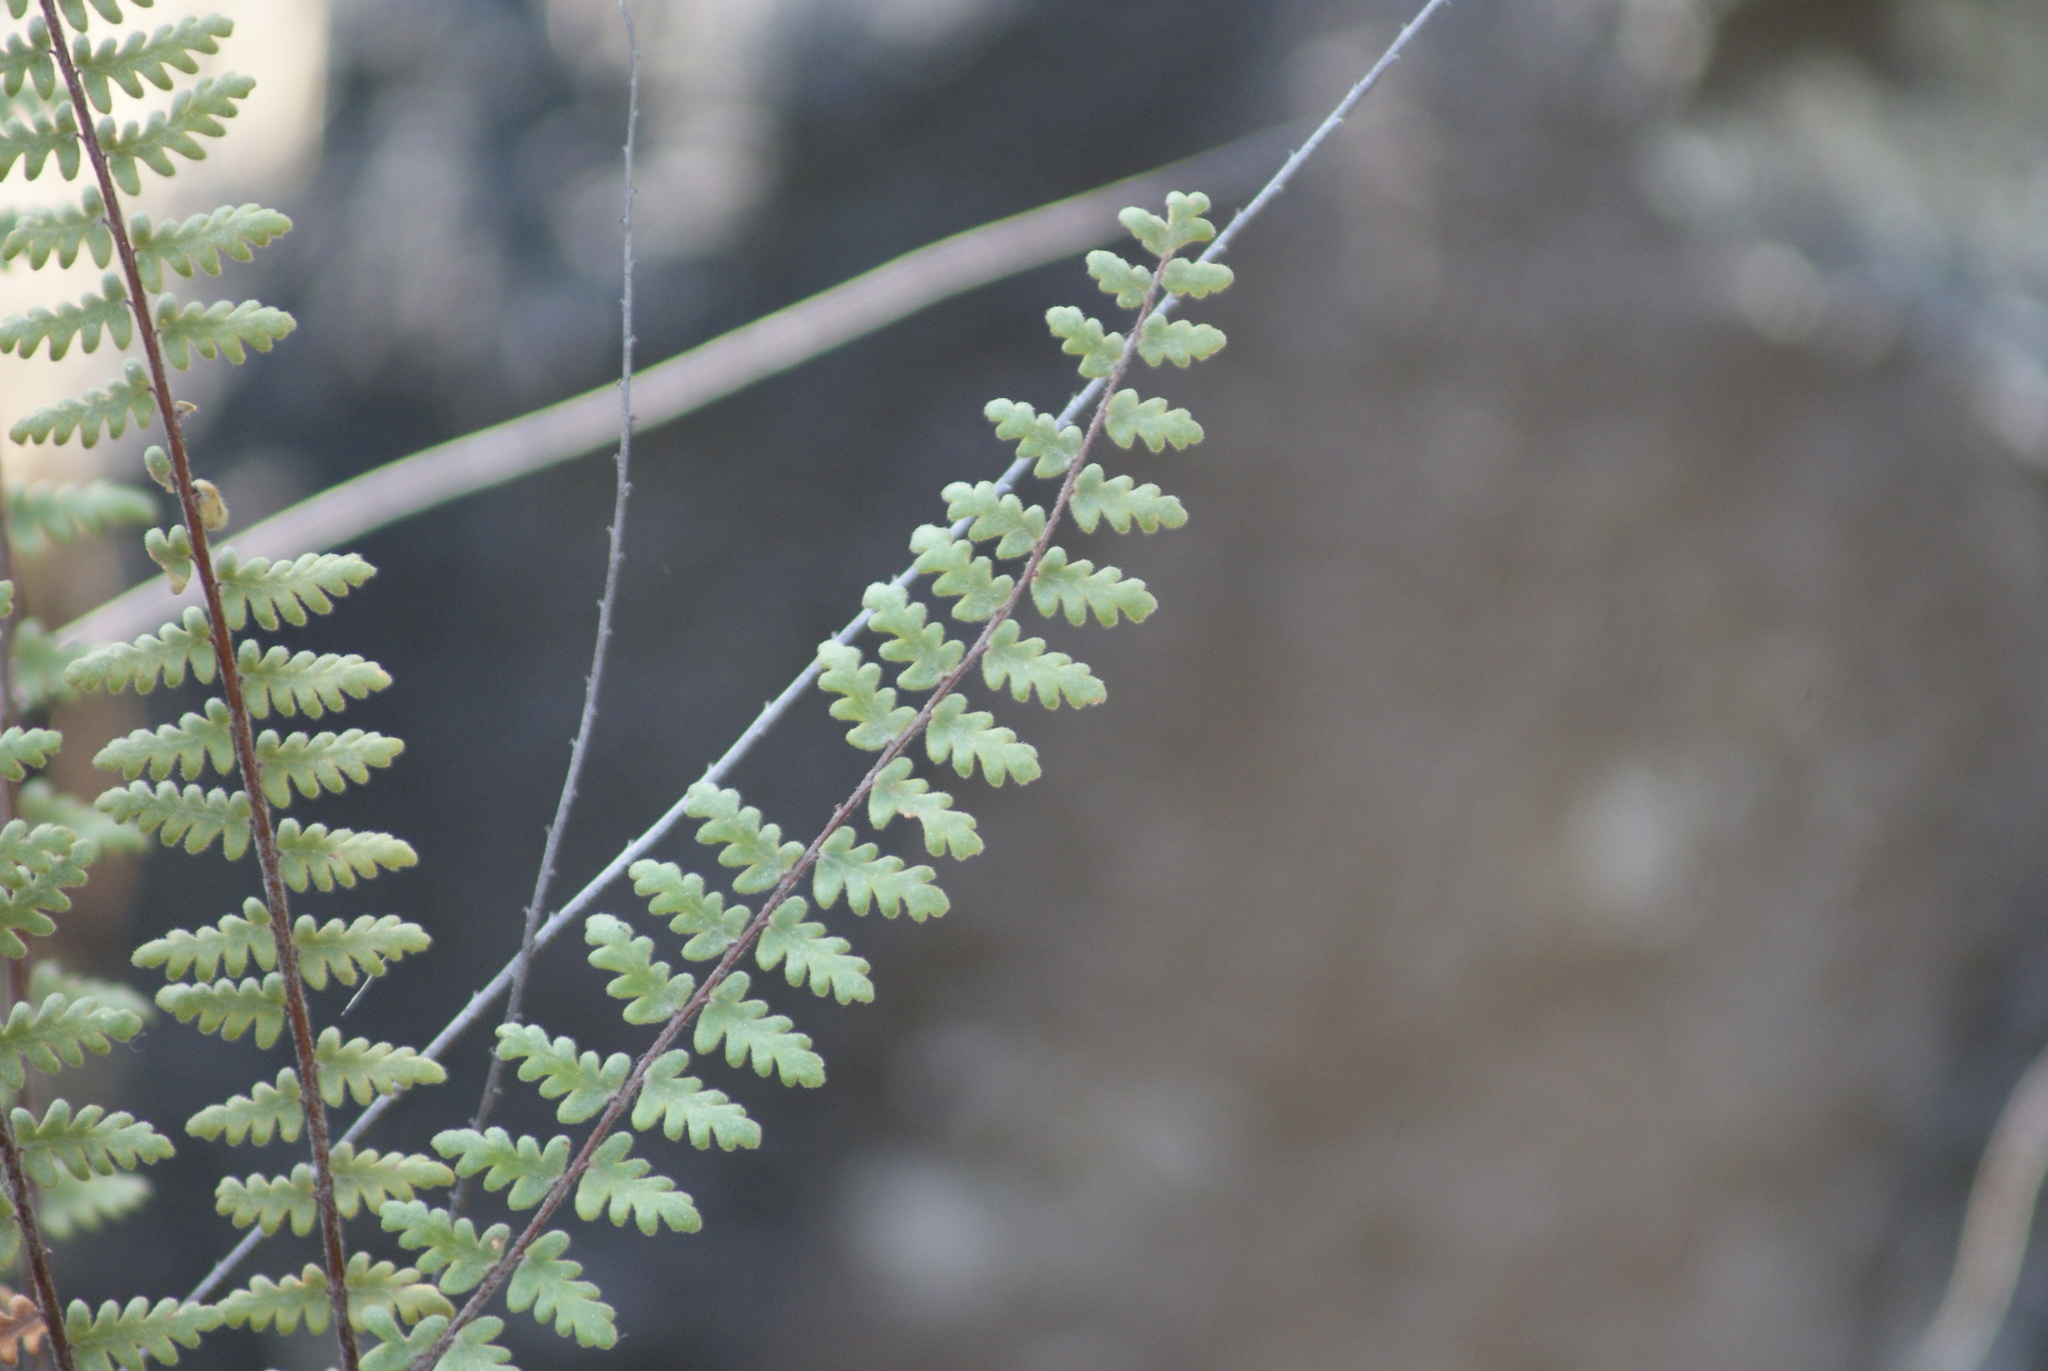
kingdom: Plantae
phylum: Tracheophyta
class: Polypodiopsida
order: Polypodiales
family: Pteridaceae
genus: Myriopteris
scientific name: Myriopteris aurea
